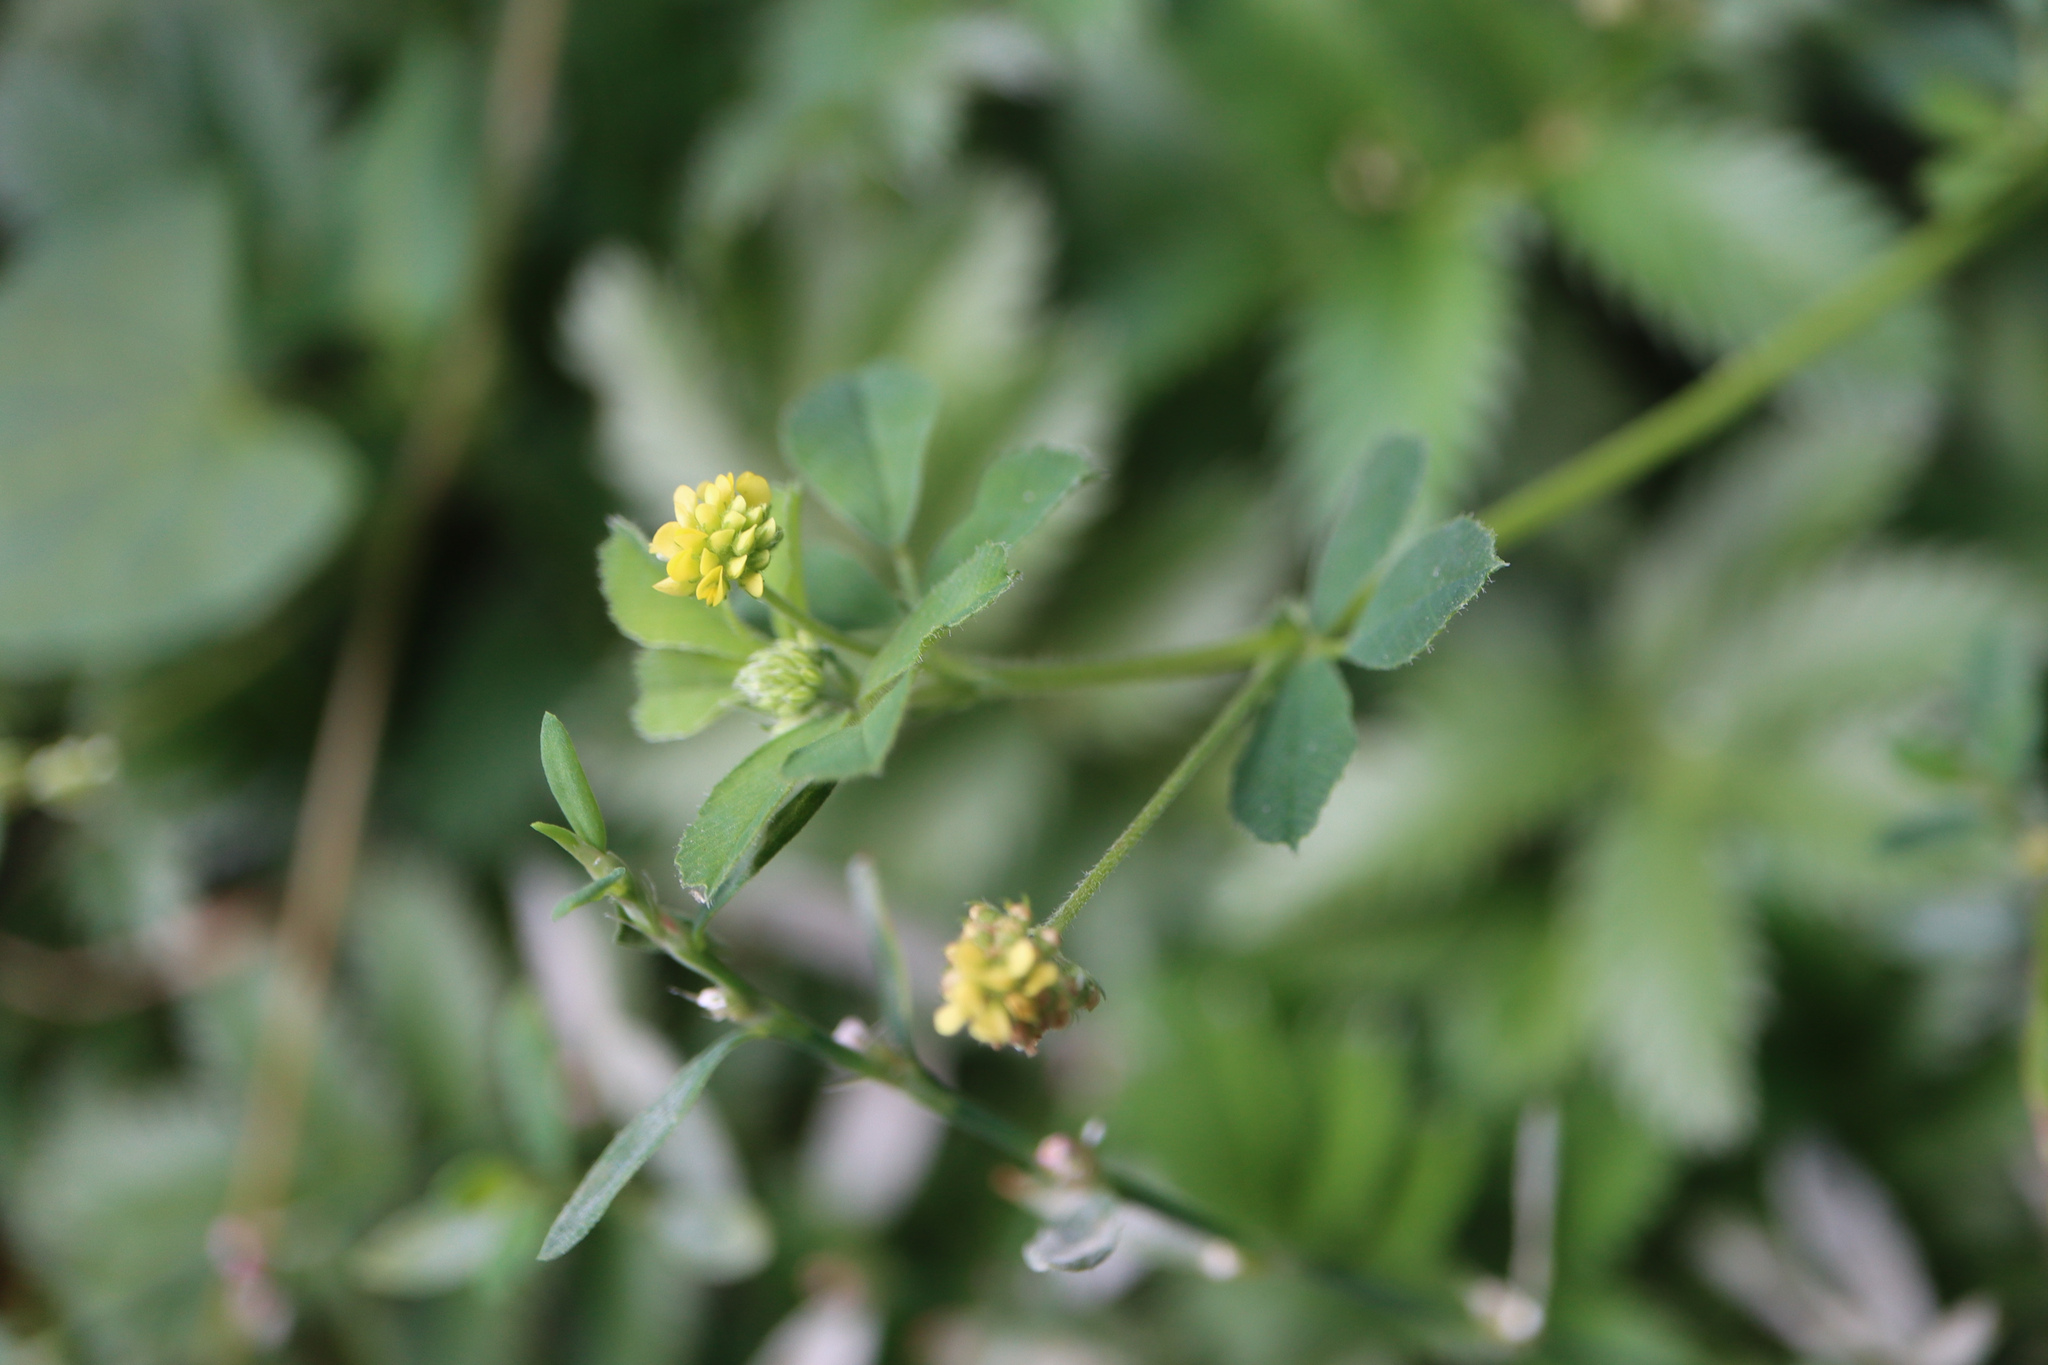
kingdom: Plantae
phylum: Tracheophyta
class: Magnoliopsida
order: Fabales
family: Fabaceae
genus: Medicago
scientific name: Medicago lupulina
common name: Black medick
